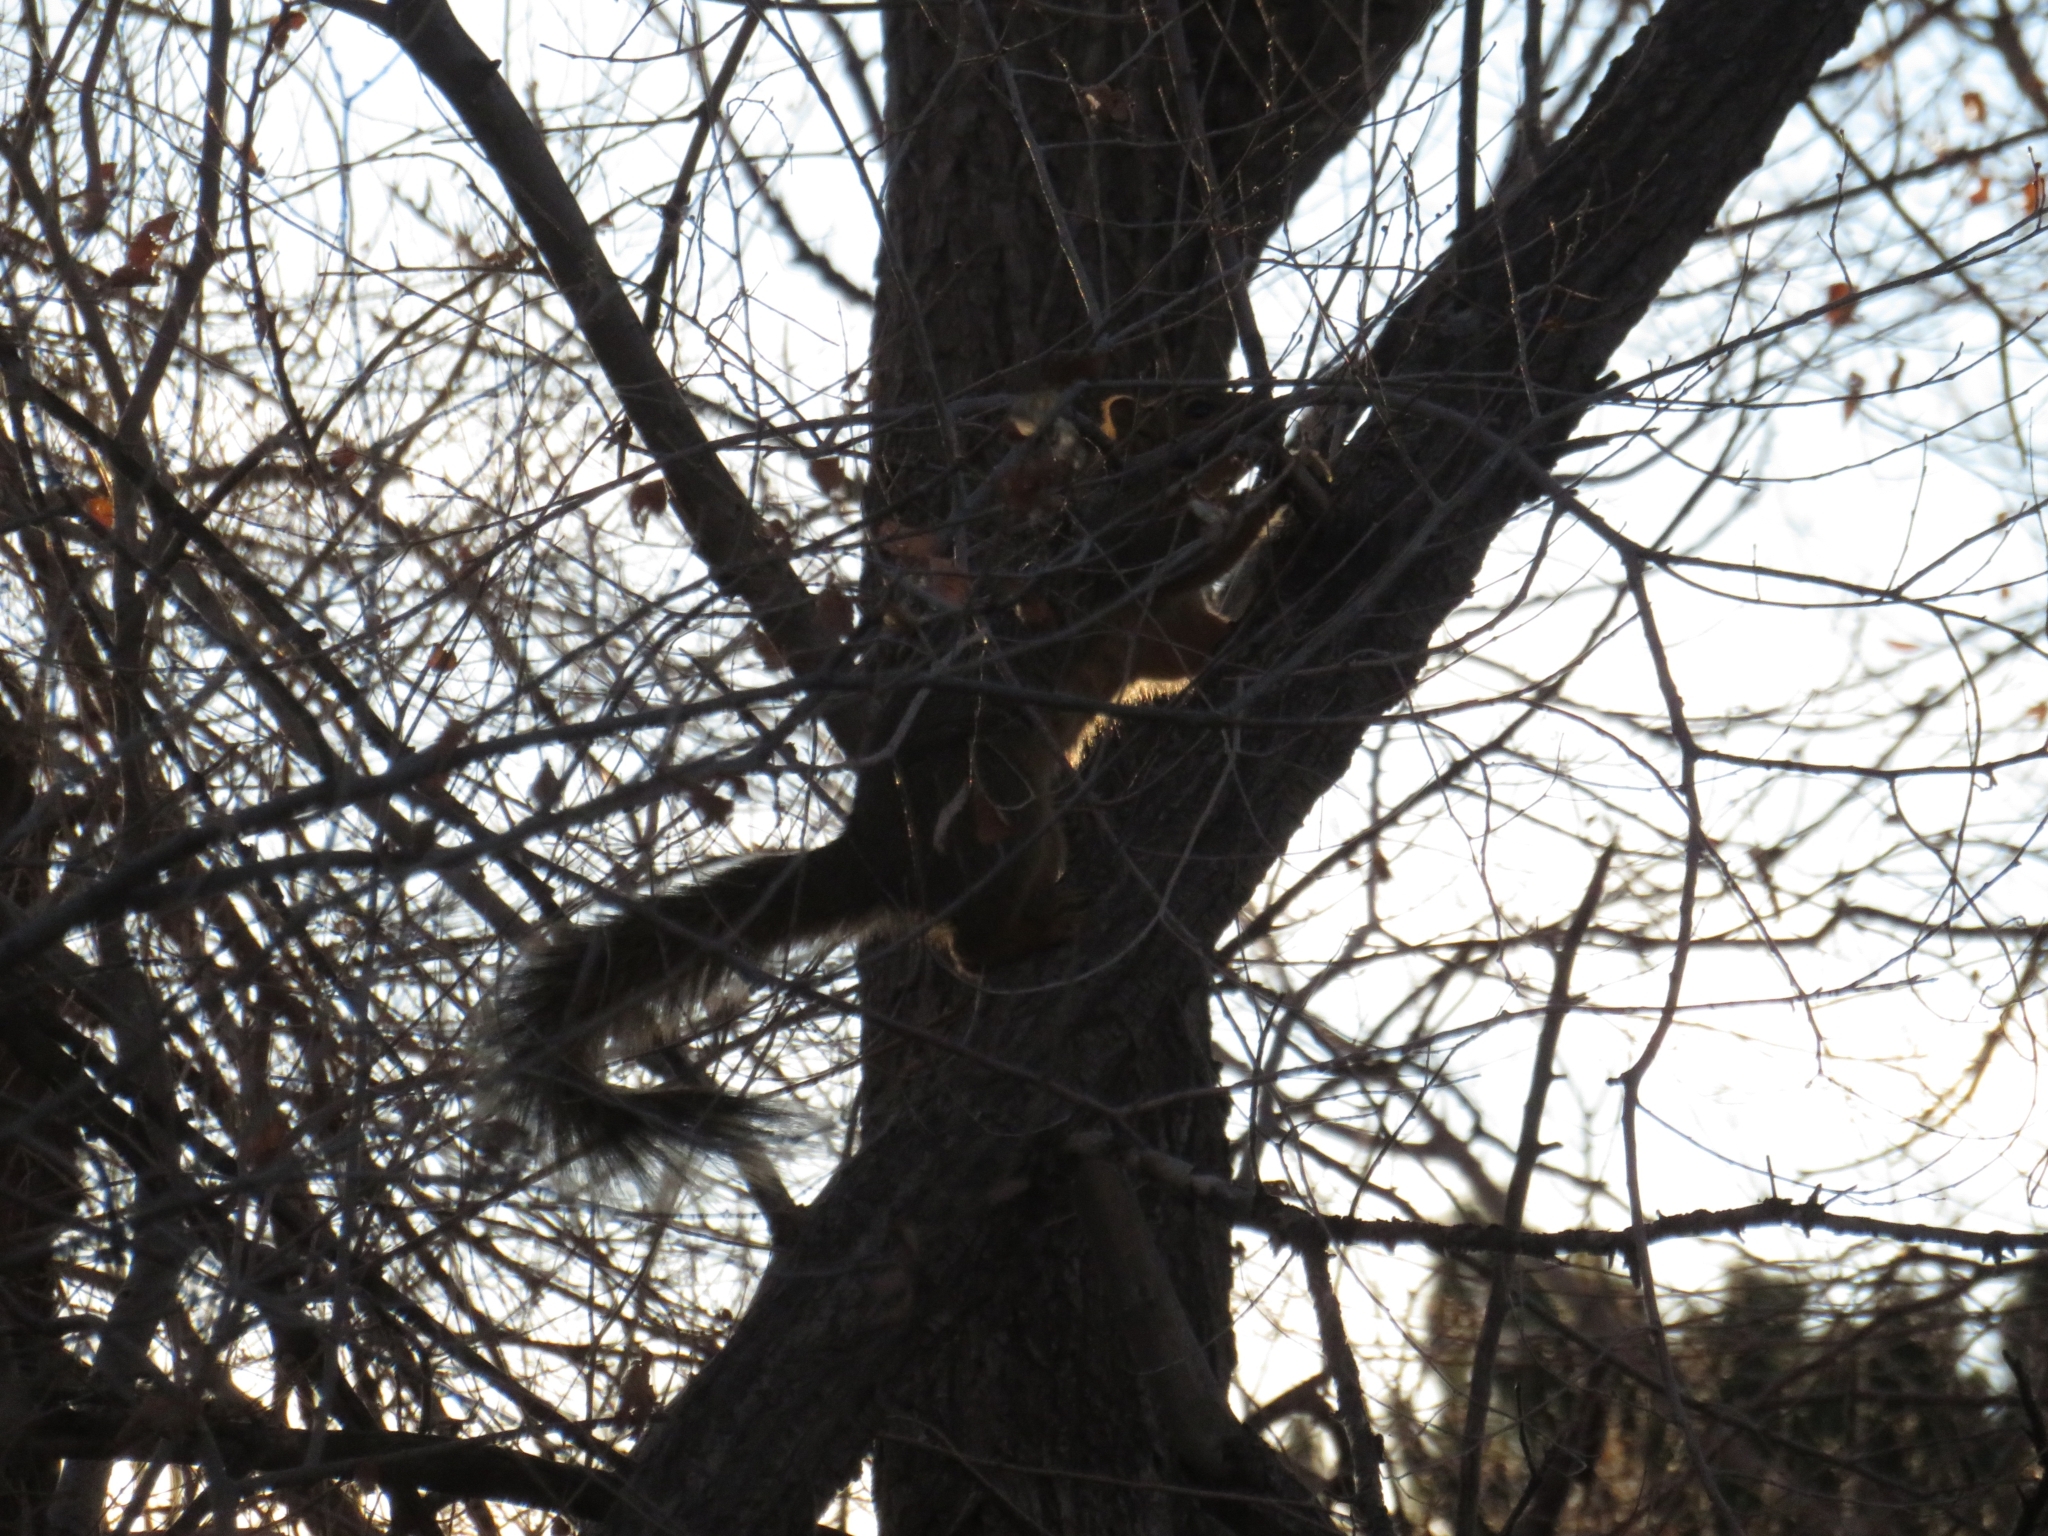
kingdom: Animalia
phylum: Chordata
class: Mammalia
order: Rodentia
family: Sciuridae
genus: Sciurus
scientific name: Sciurus niger
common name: Fox squirrel
